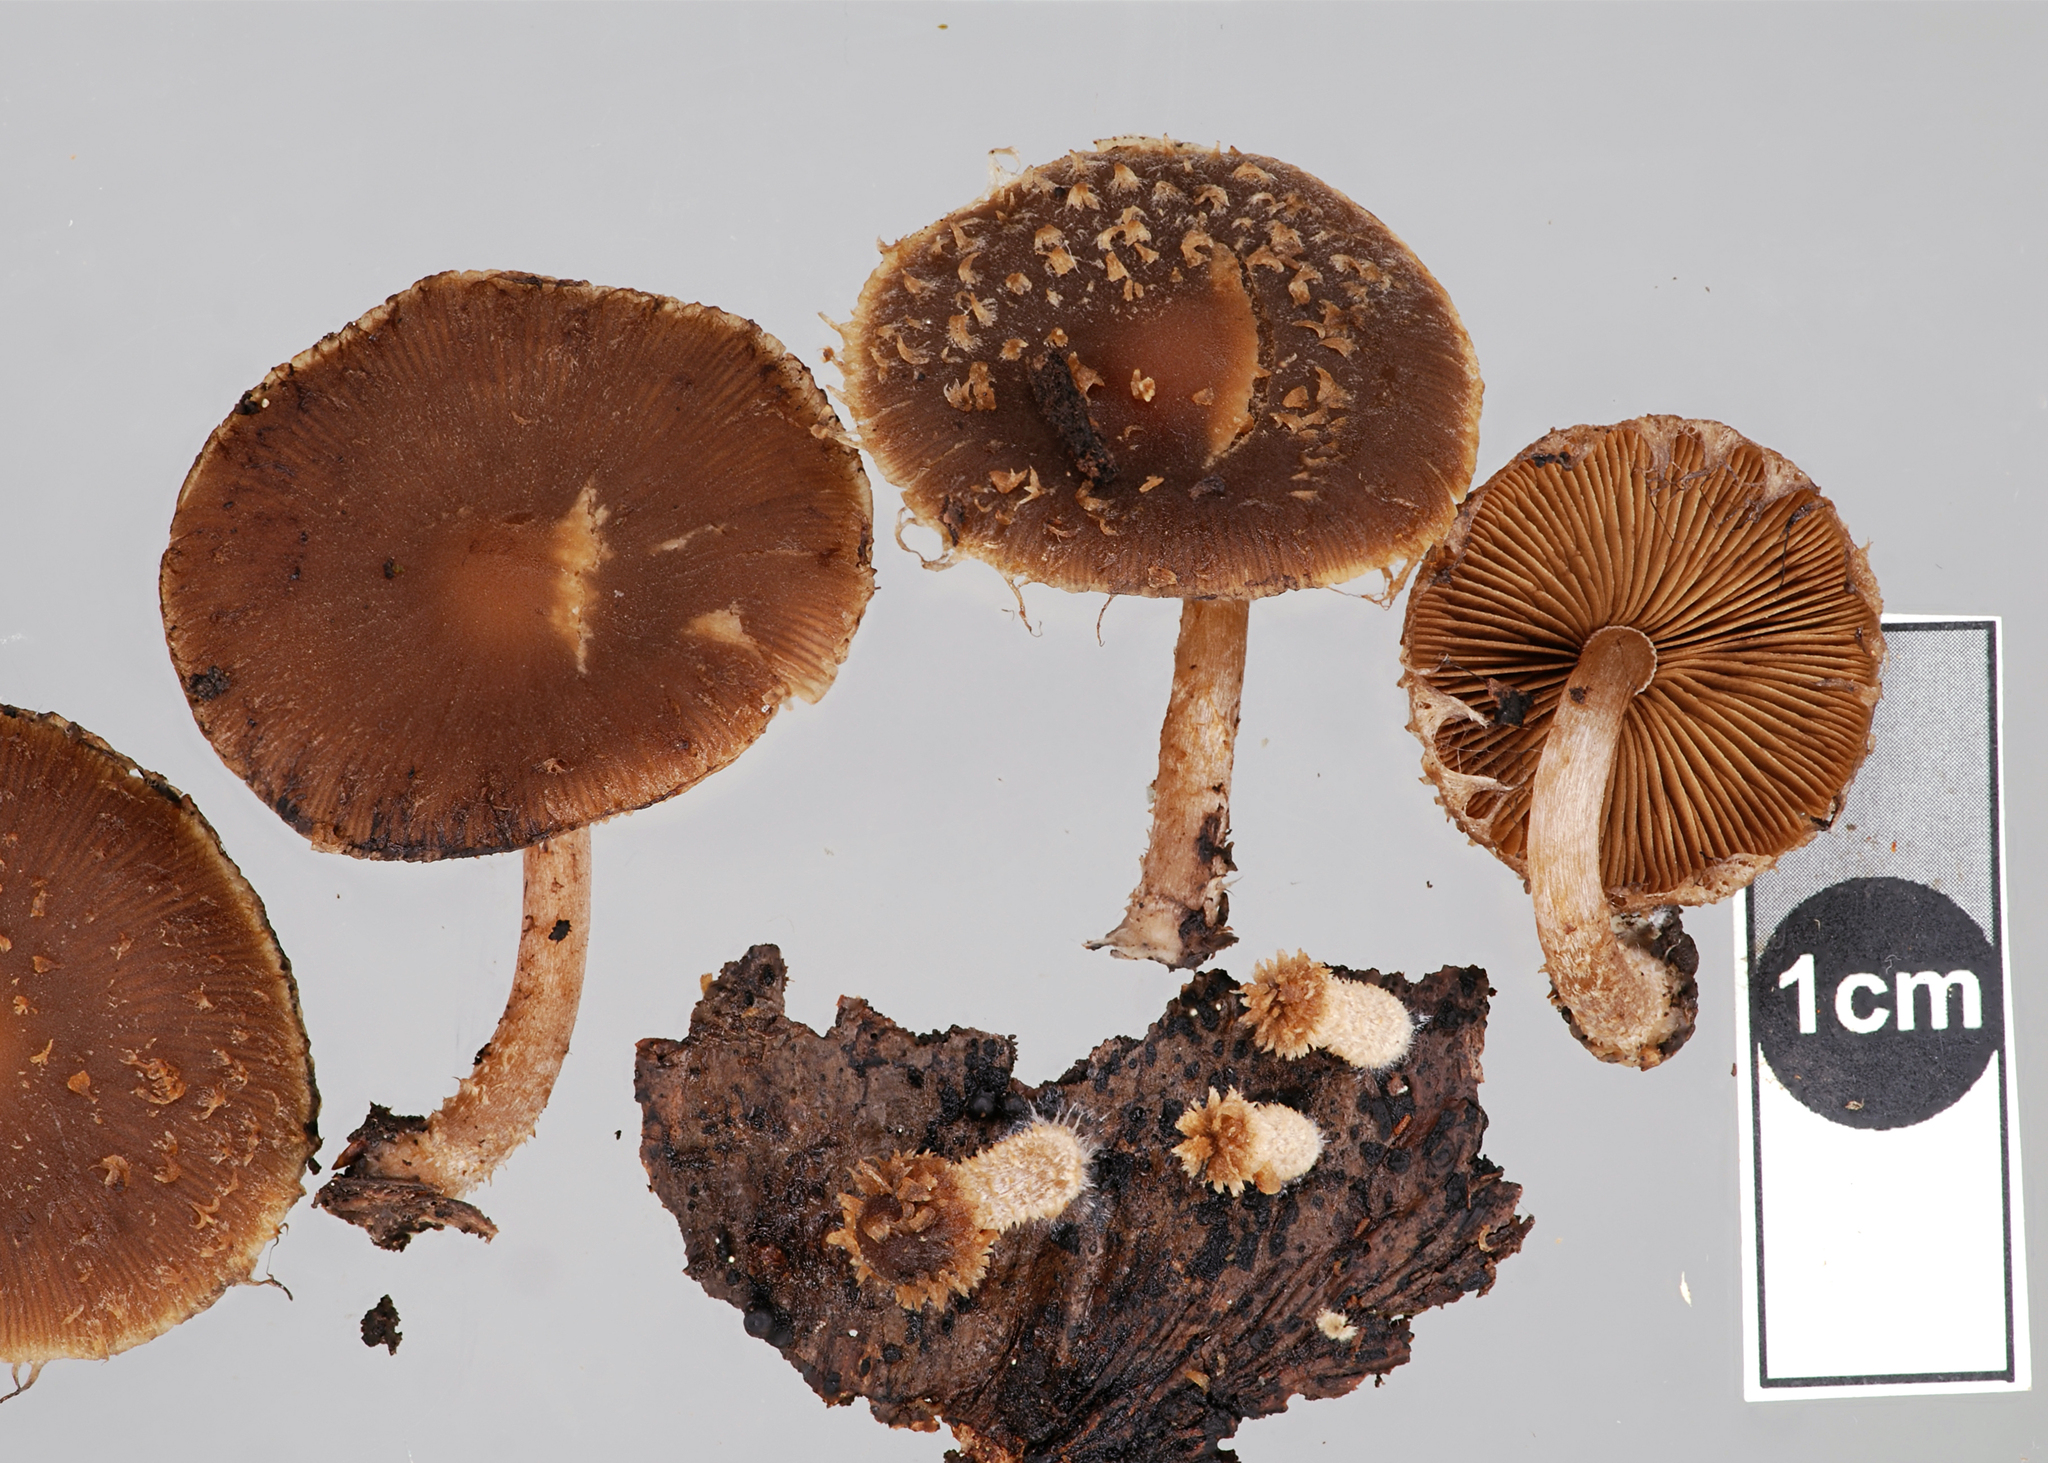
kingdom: Fungi
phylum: Basidiomycota
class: Agaricomycetes
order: Agaricales
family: Psathyrellaceae
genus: Psathyrella
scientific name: Psathyrella echinata
